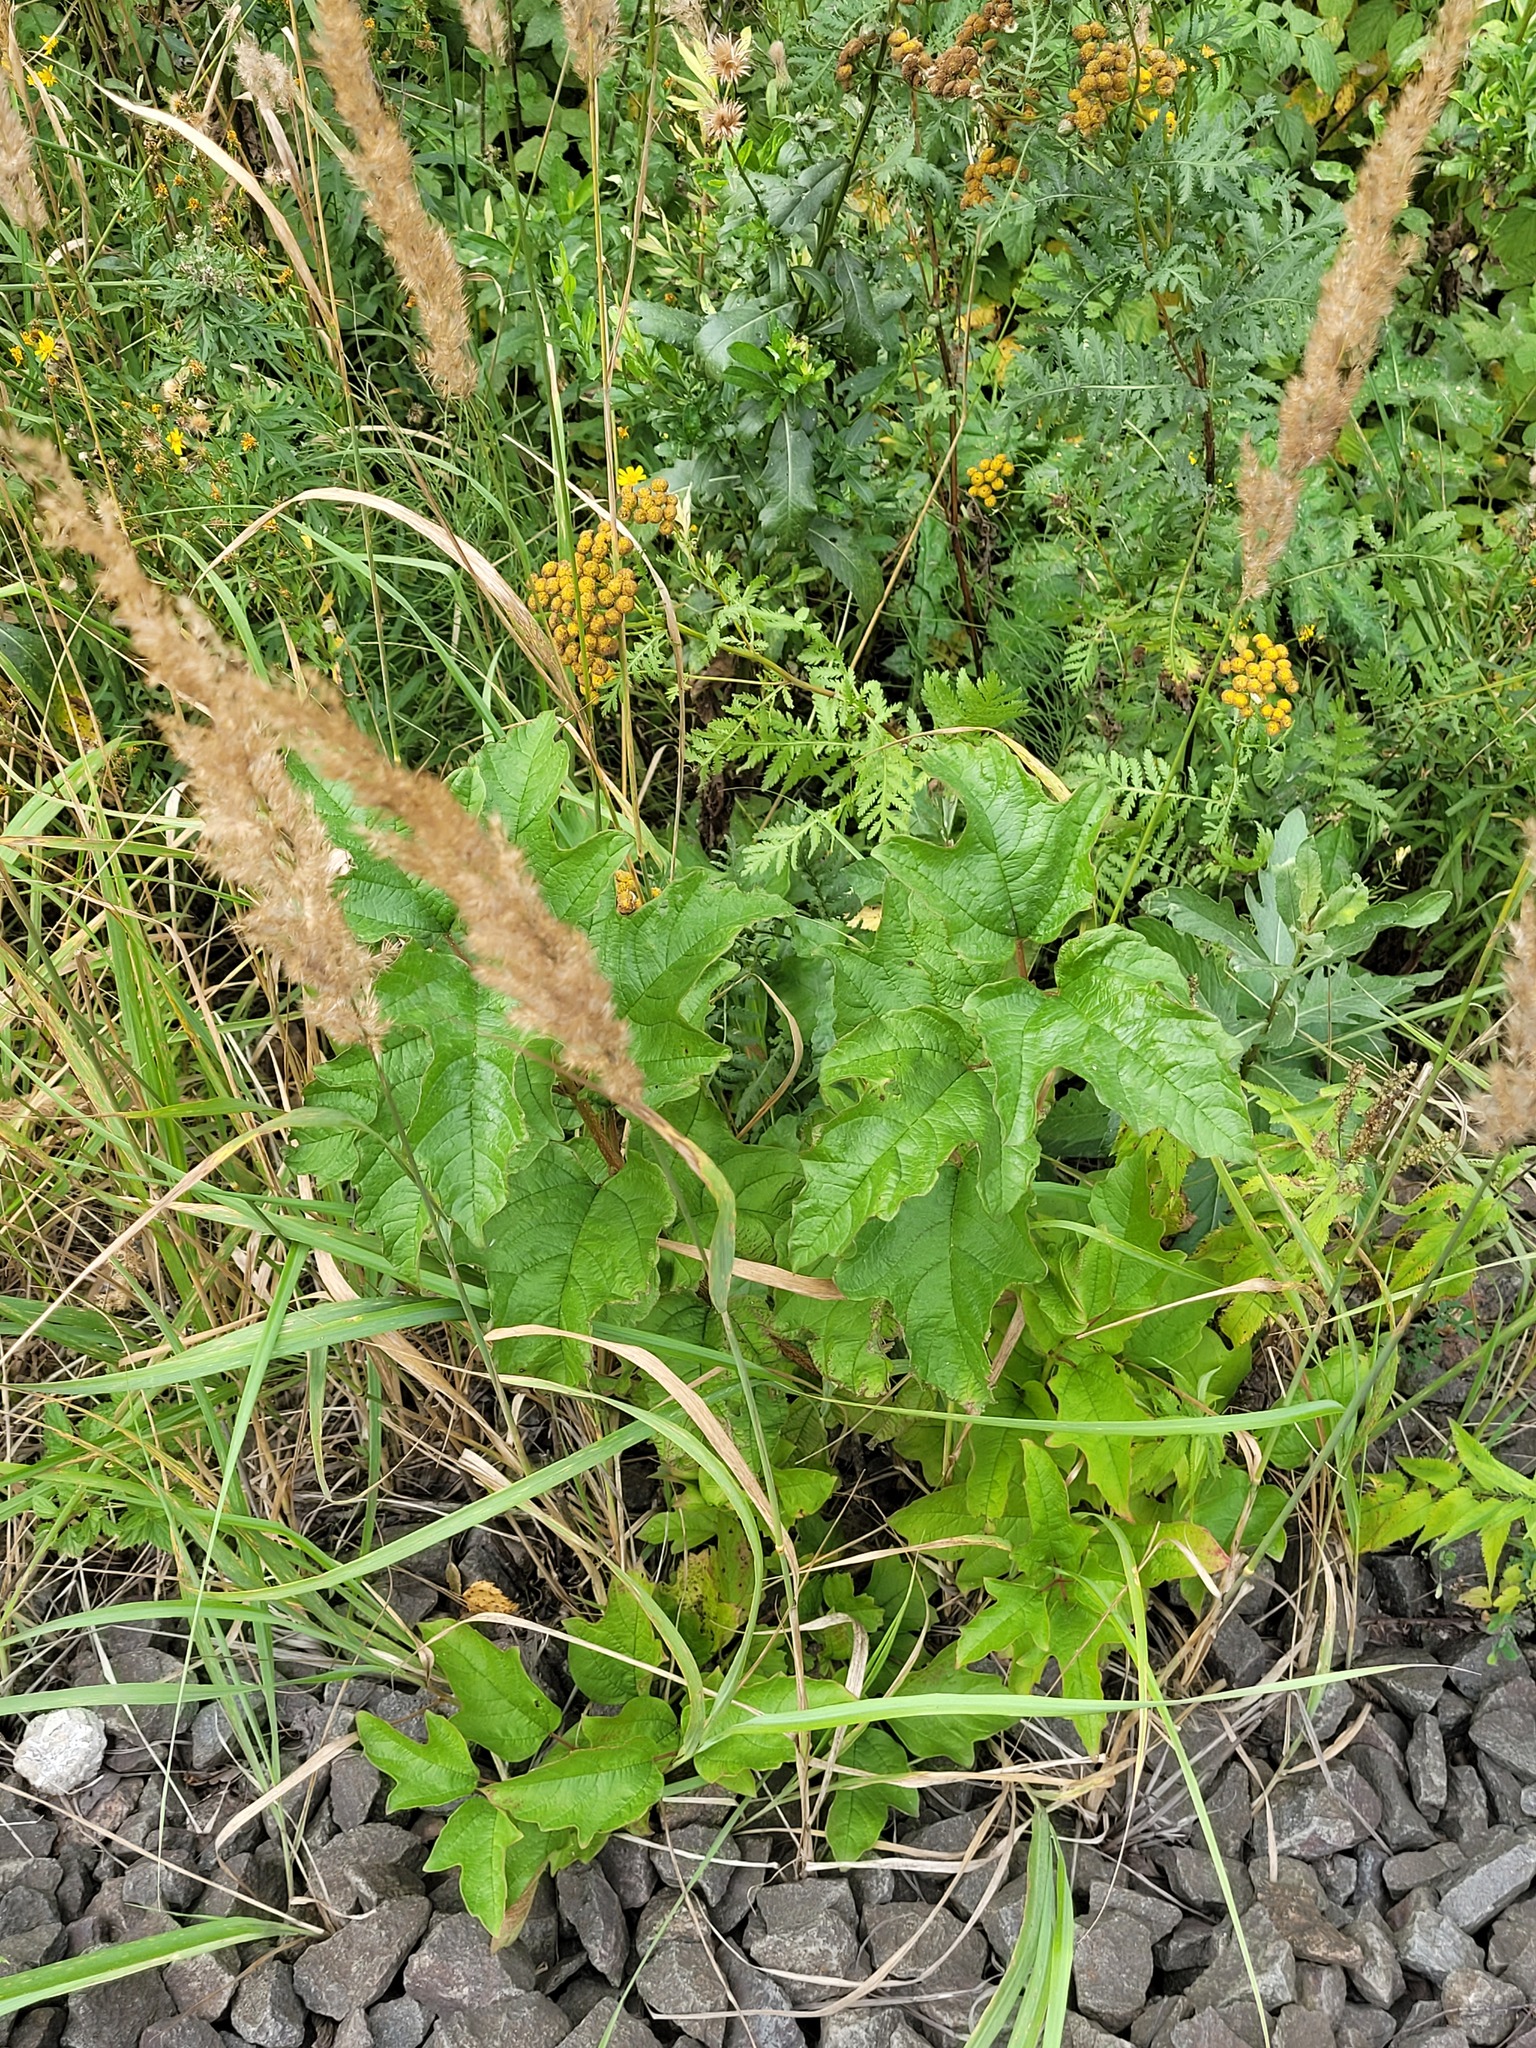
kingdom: Plantae
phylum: Tracheophyta
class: Magnoliopsida
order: Dipsacales
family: Viburnaceae
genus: Viburnum
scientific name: Viburnum opulus
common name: Guelder-rose
